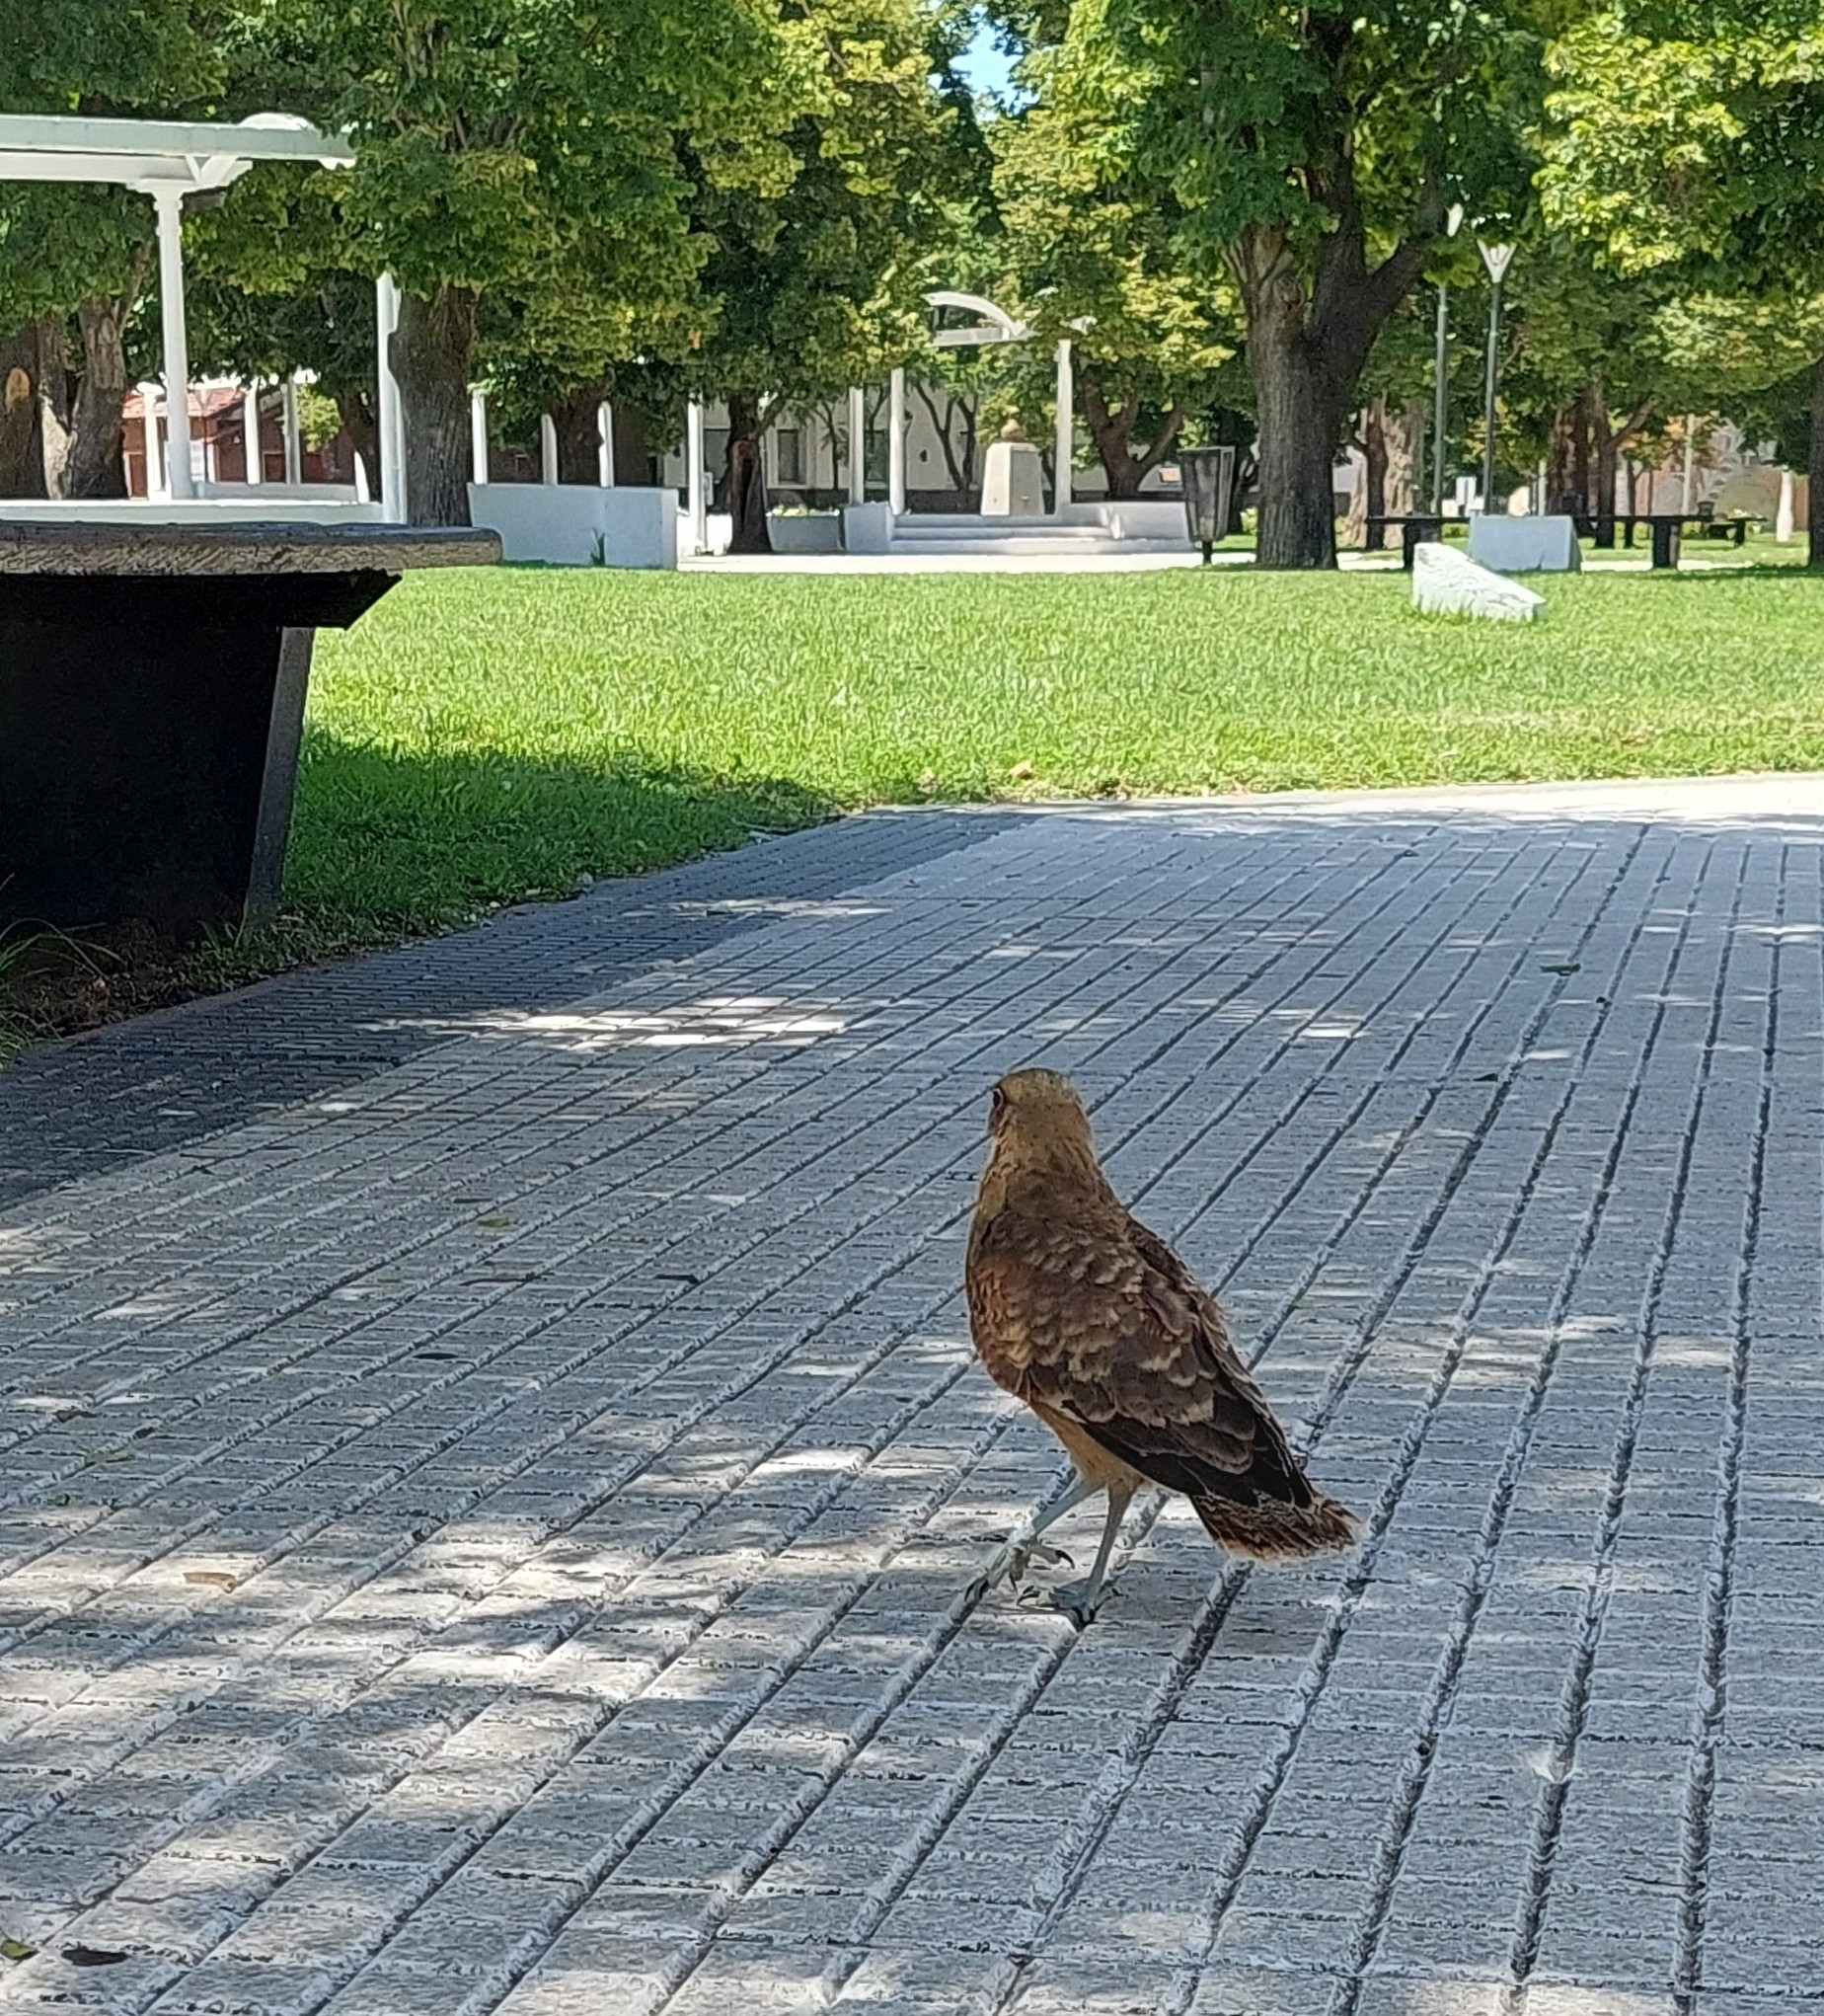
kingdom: Animalia
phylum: Chordata
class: Aves
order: Falconiformes
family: Falconidae
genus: Daptrius
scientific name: Daptrius
